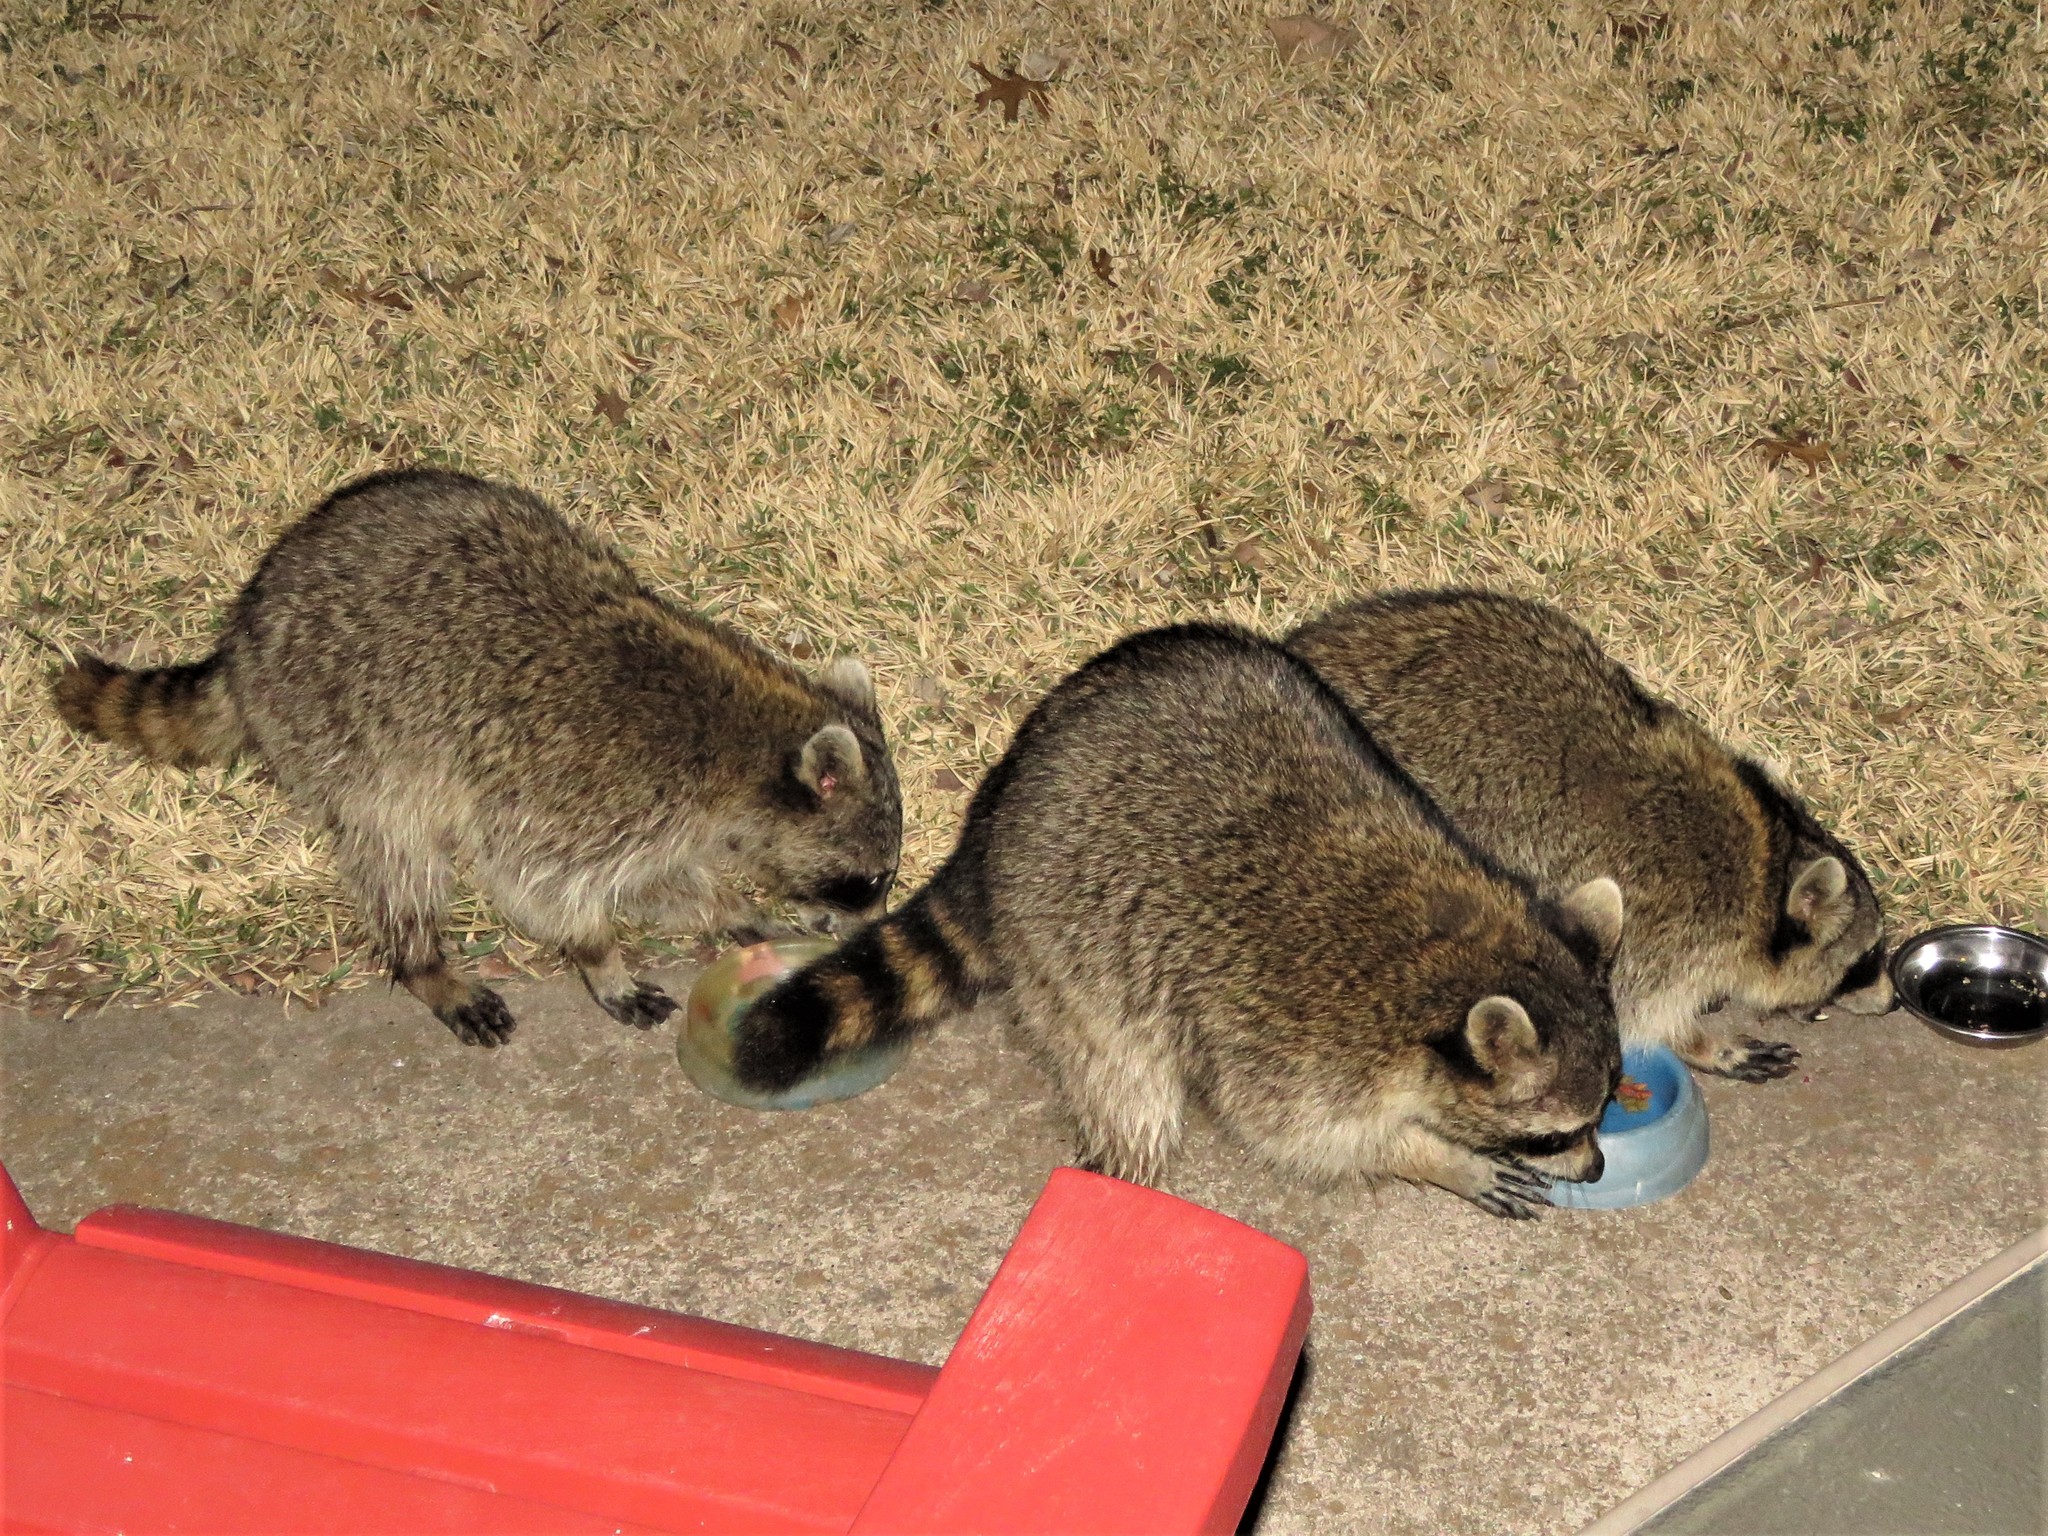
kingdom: Animalia
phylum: Chordata
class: Mammalia
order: Carnivora
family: Procyonidae
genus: Procyon
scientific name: Procyon lotor
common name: Raccoon
